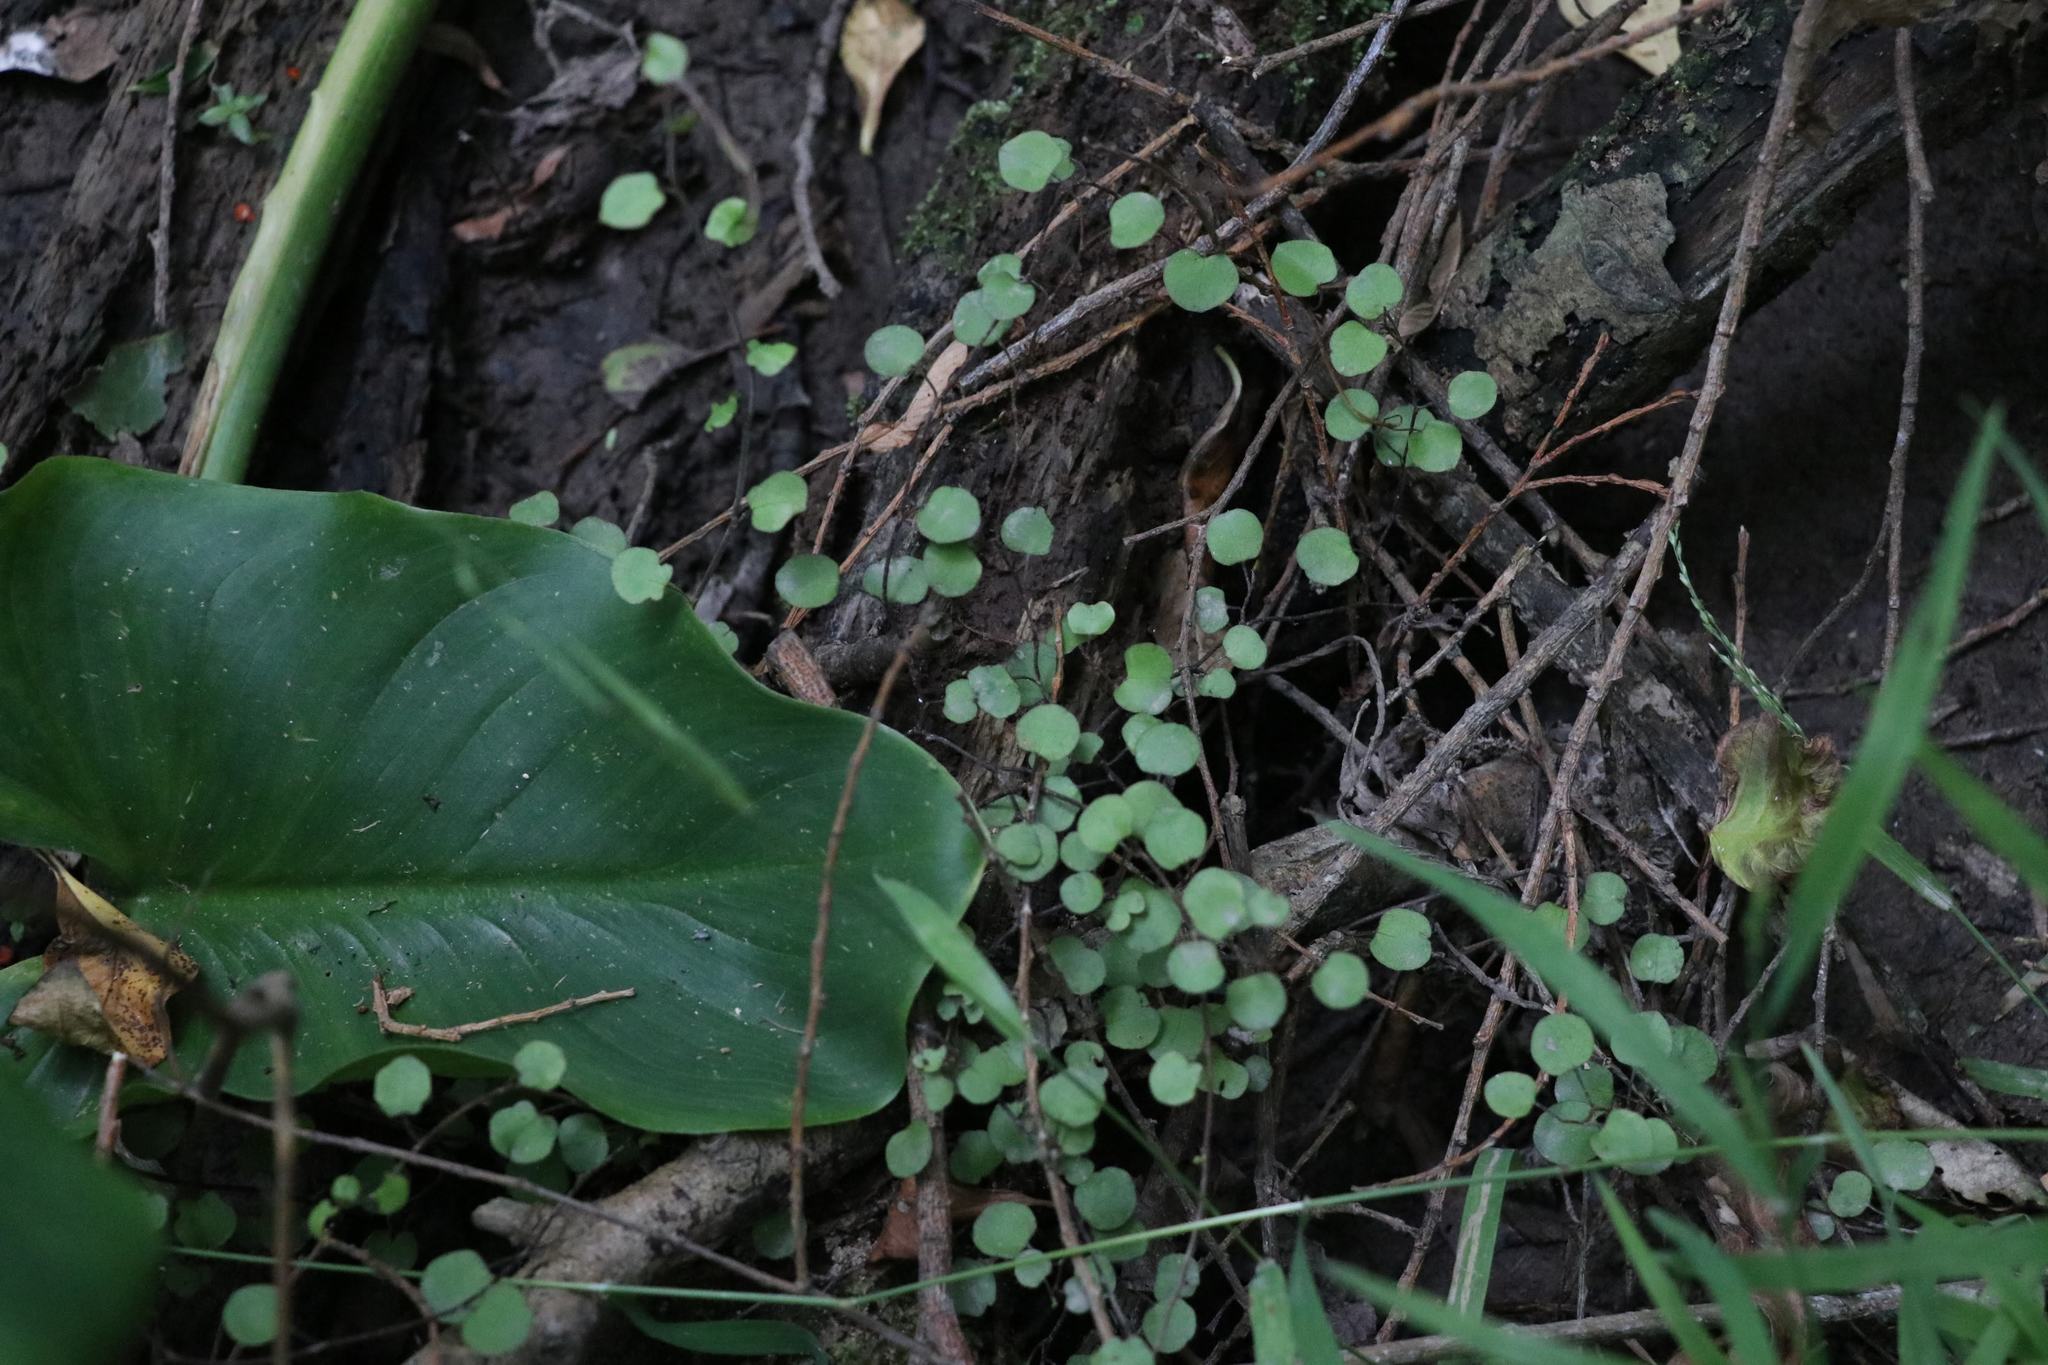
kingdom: Plantae
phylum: Tracheophyta
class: Magnoliopsida
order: Caryophyllales
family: Polygonaceae
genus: Muehlenbeckia
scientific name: Muehlenbeckia complexa
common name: Wireplant
